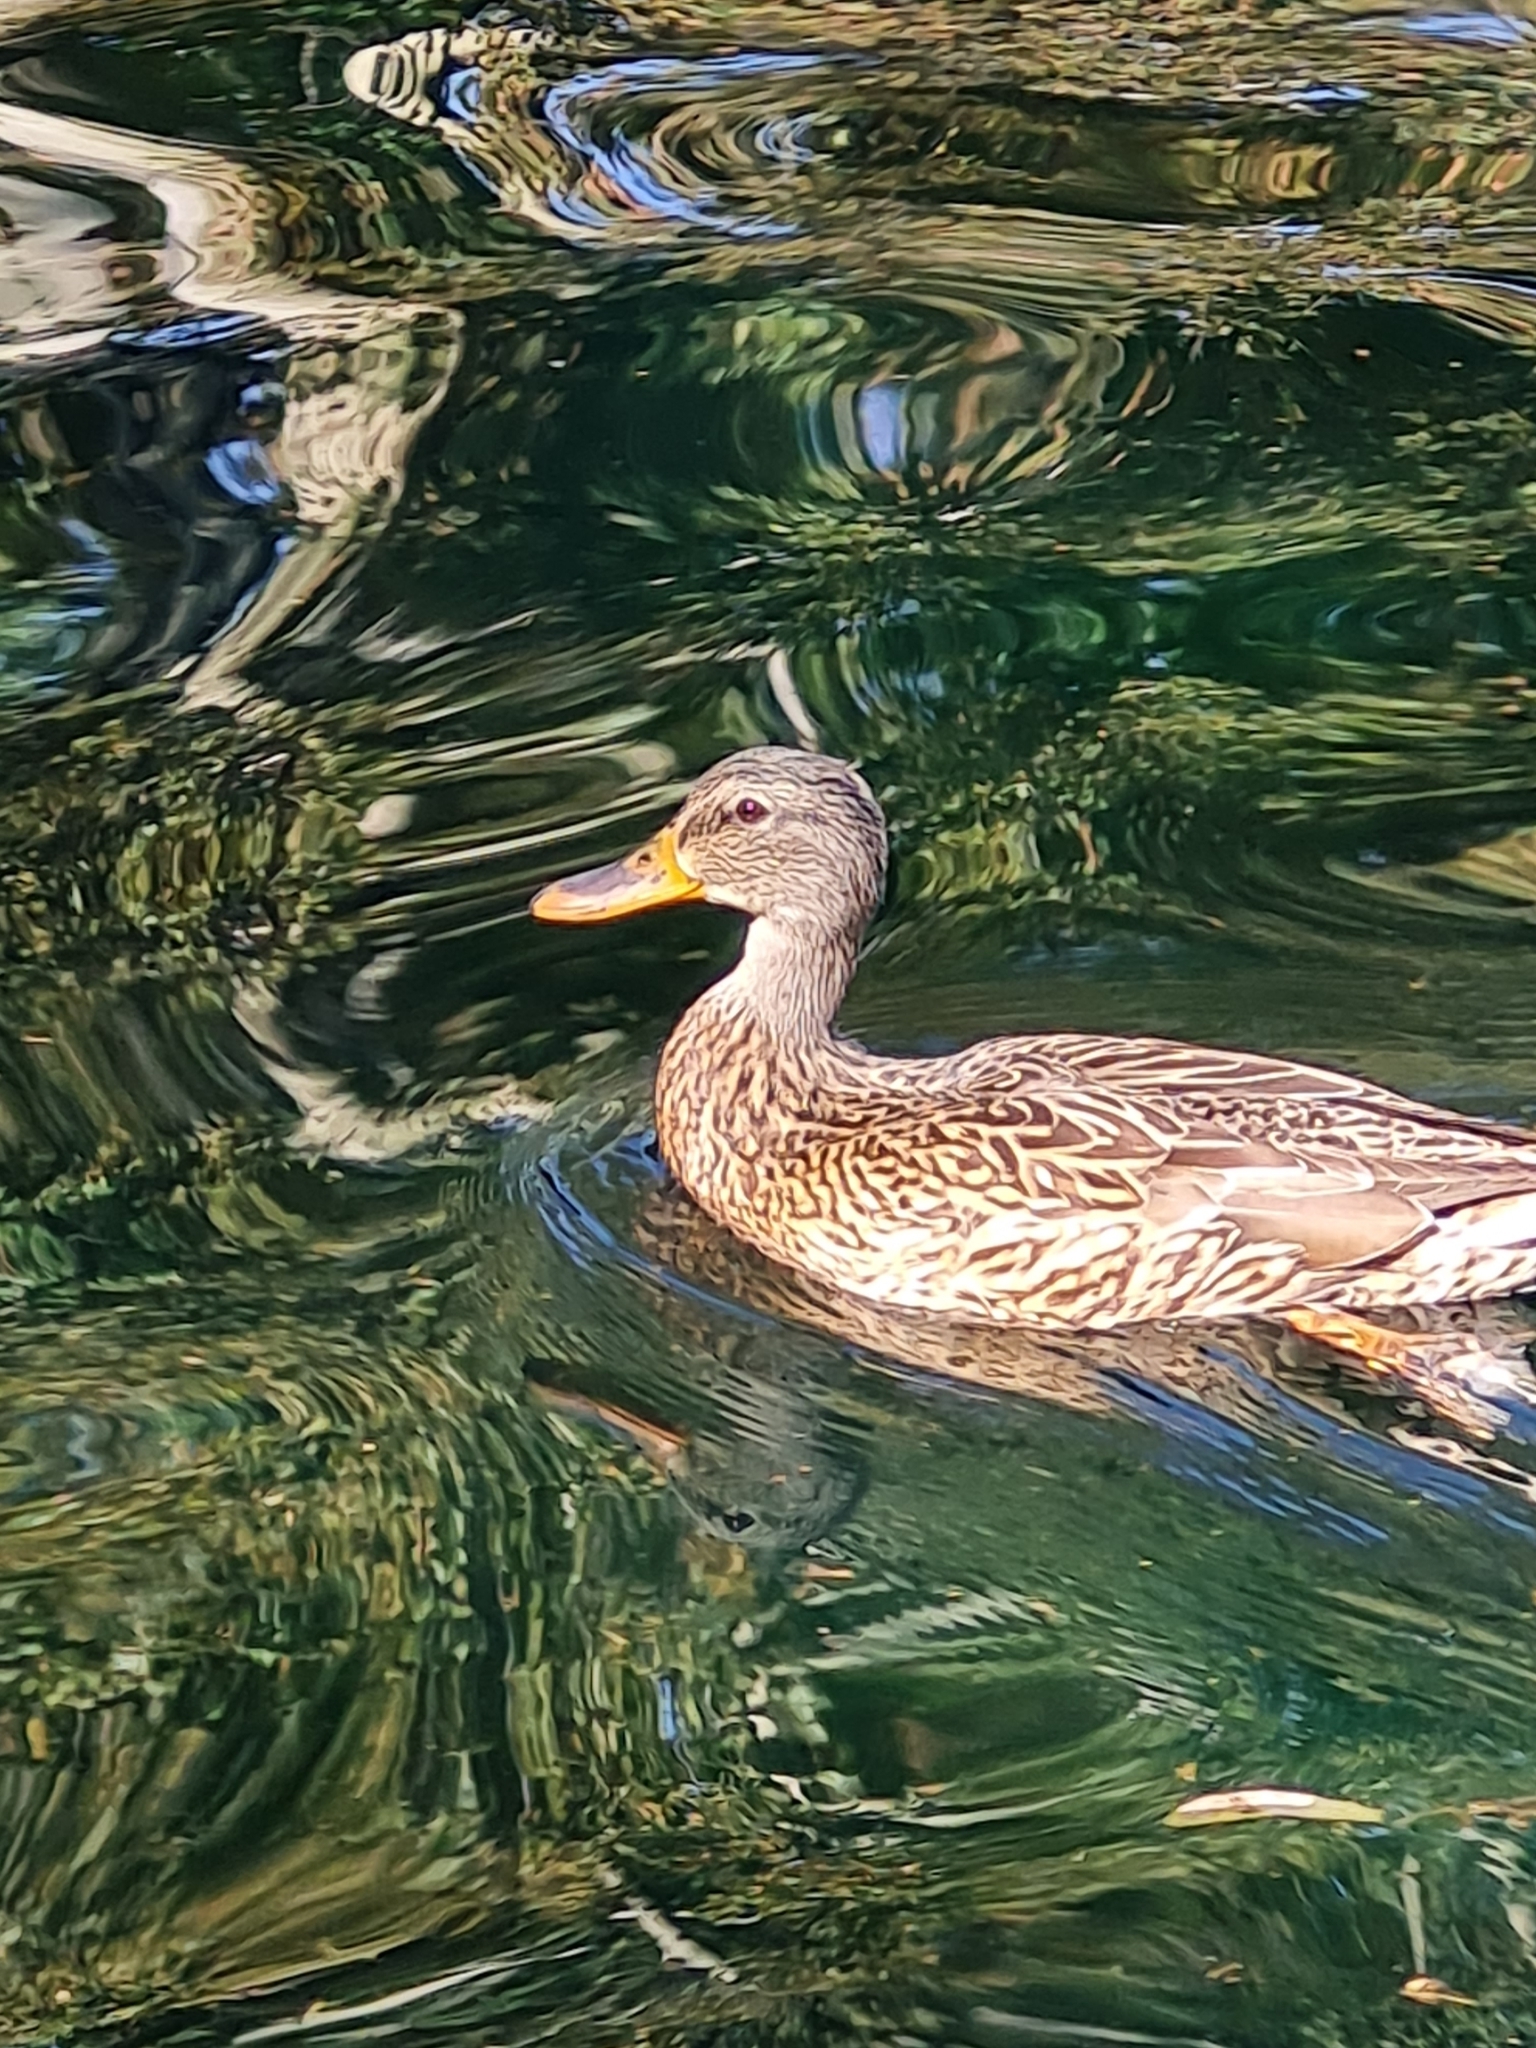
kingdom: Animalia
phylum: Chordata
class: Aves
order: Anseriformes
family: Anatidae
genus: Anas
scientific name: Anas platyrhynchos
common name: Mallard
